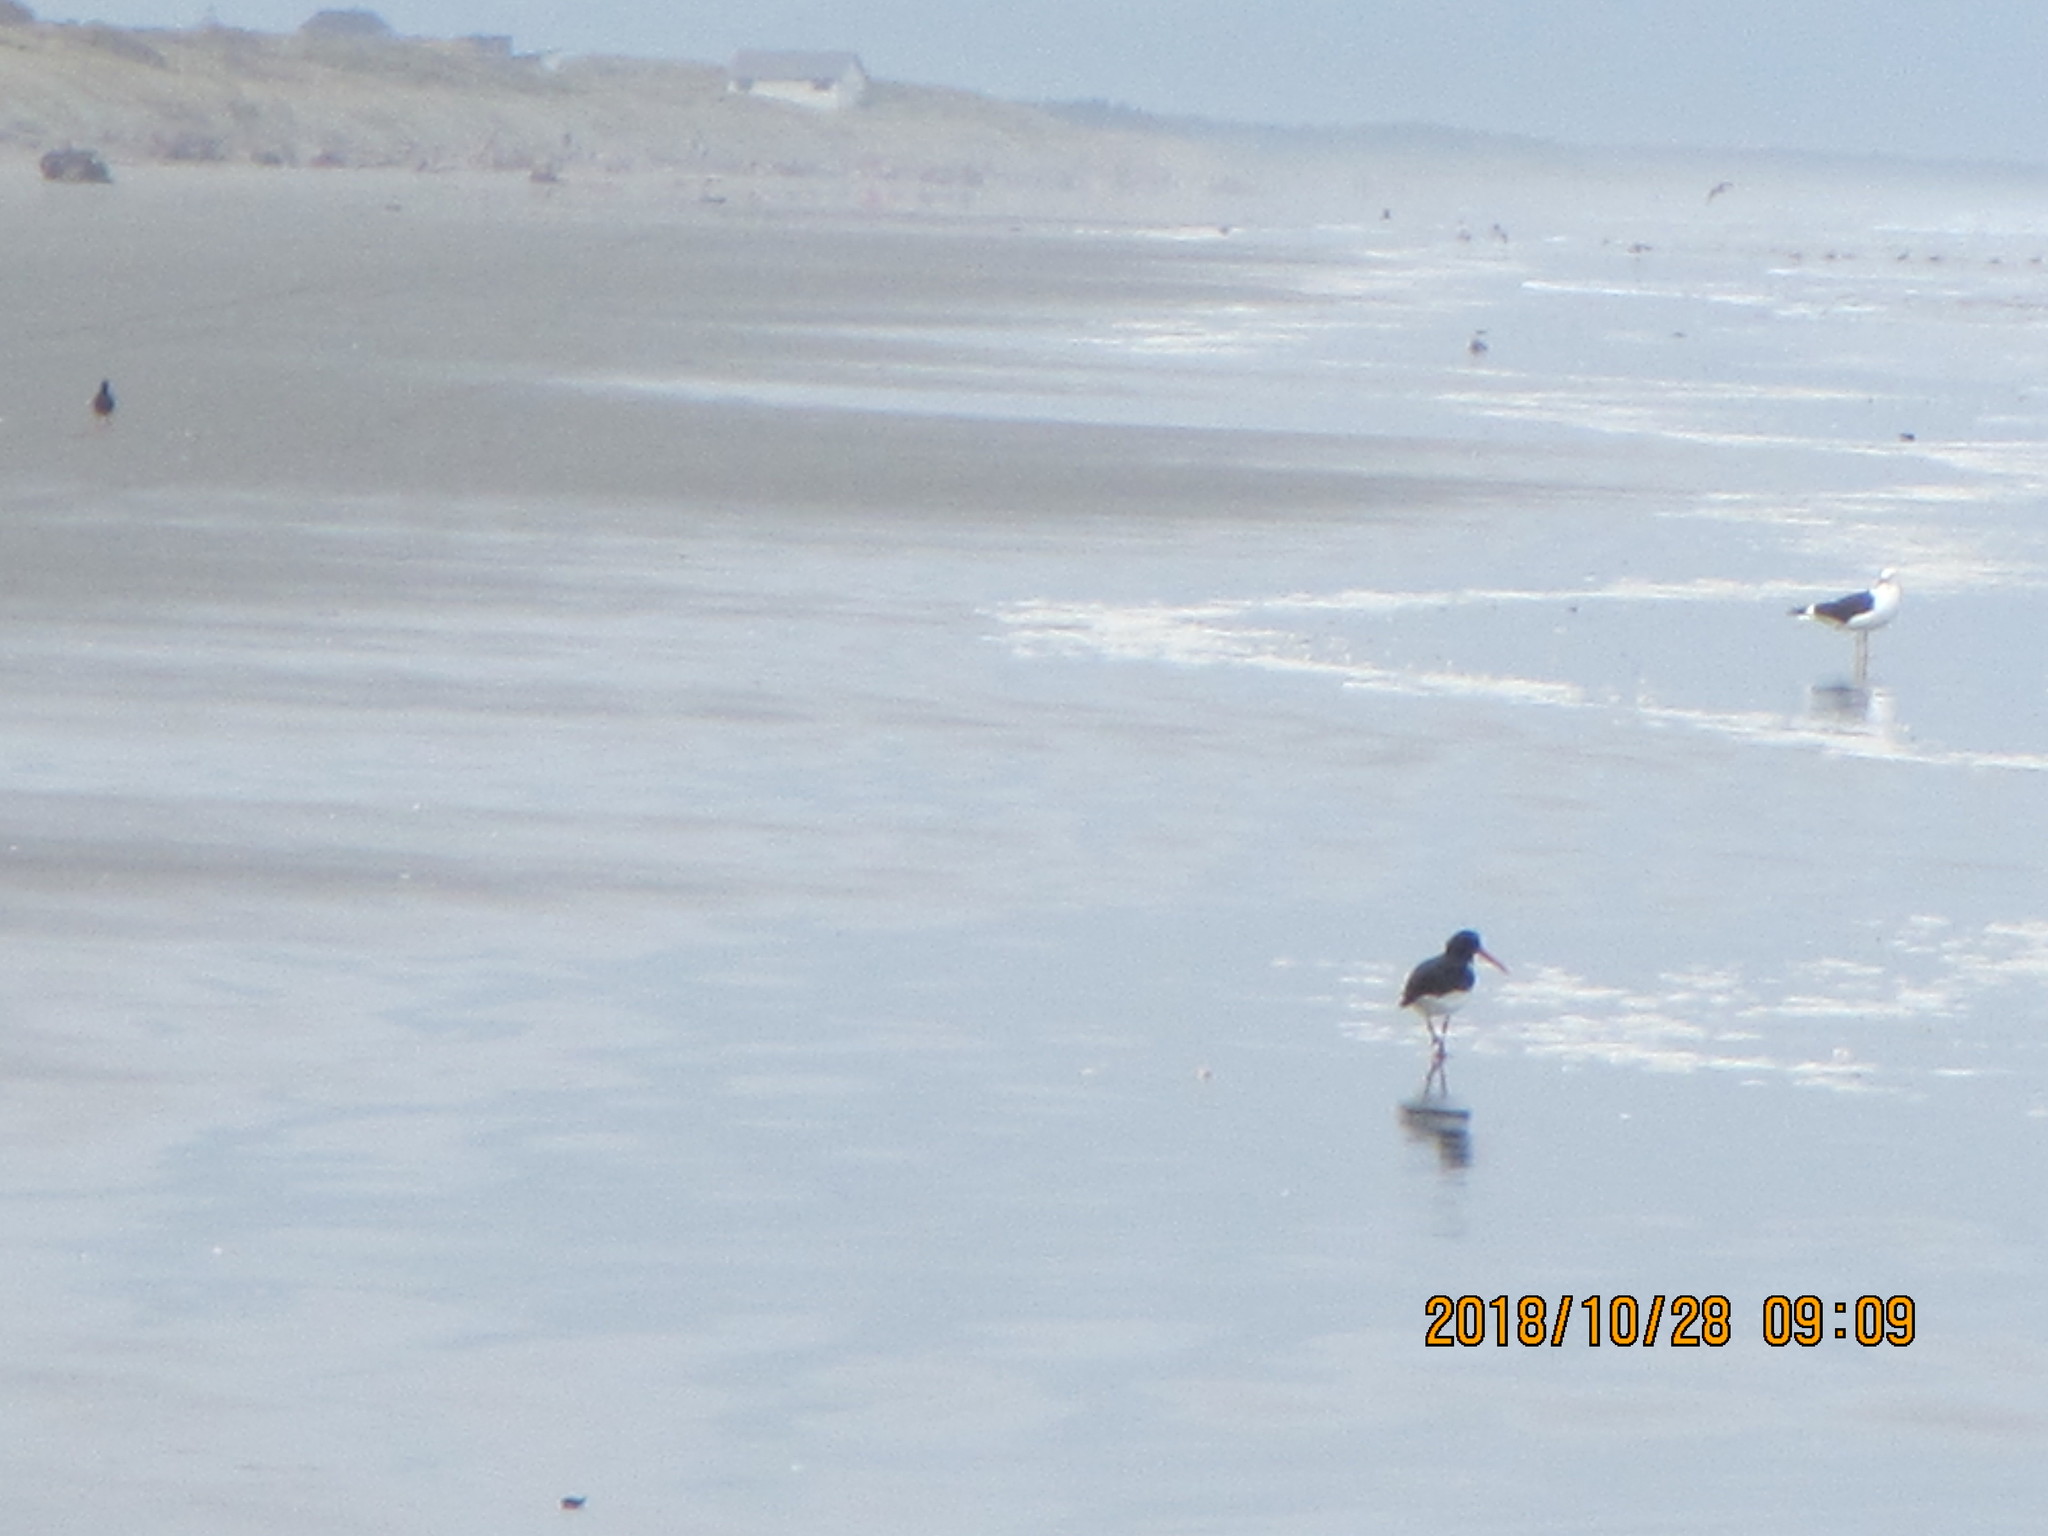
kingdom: Animalia
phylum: Chordata
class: Aves
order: Charadriiformes
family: Haematopodidae
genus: Haematopus
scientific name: Haematopus finschi
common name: South island oystercatcher
